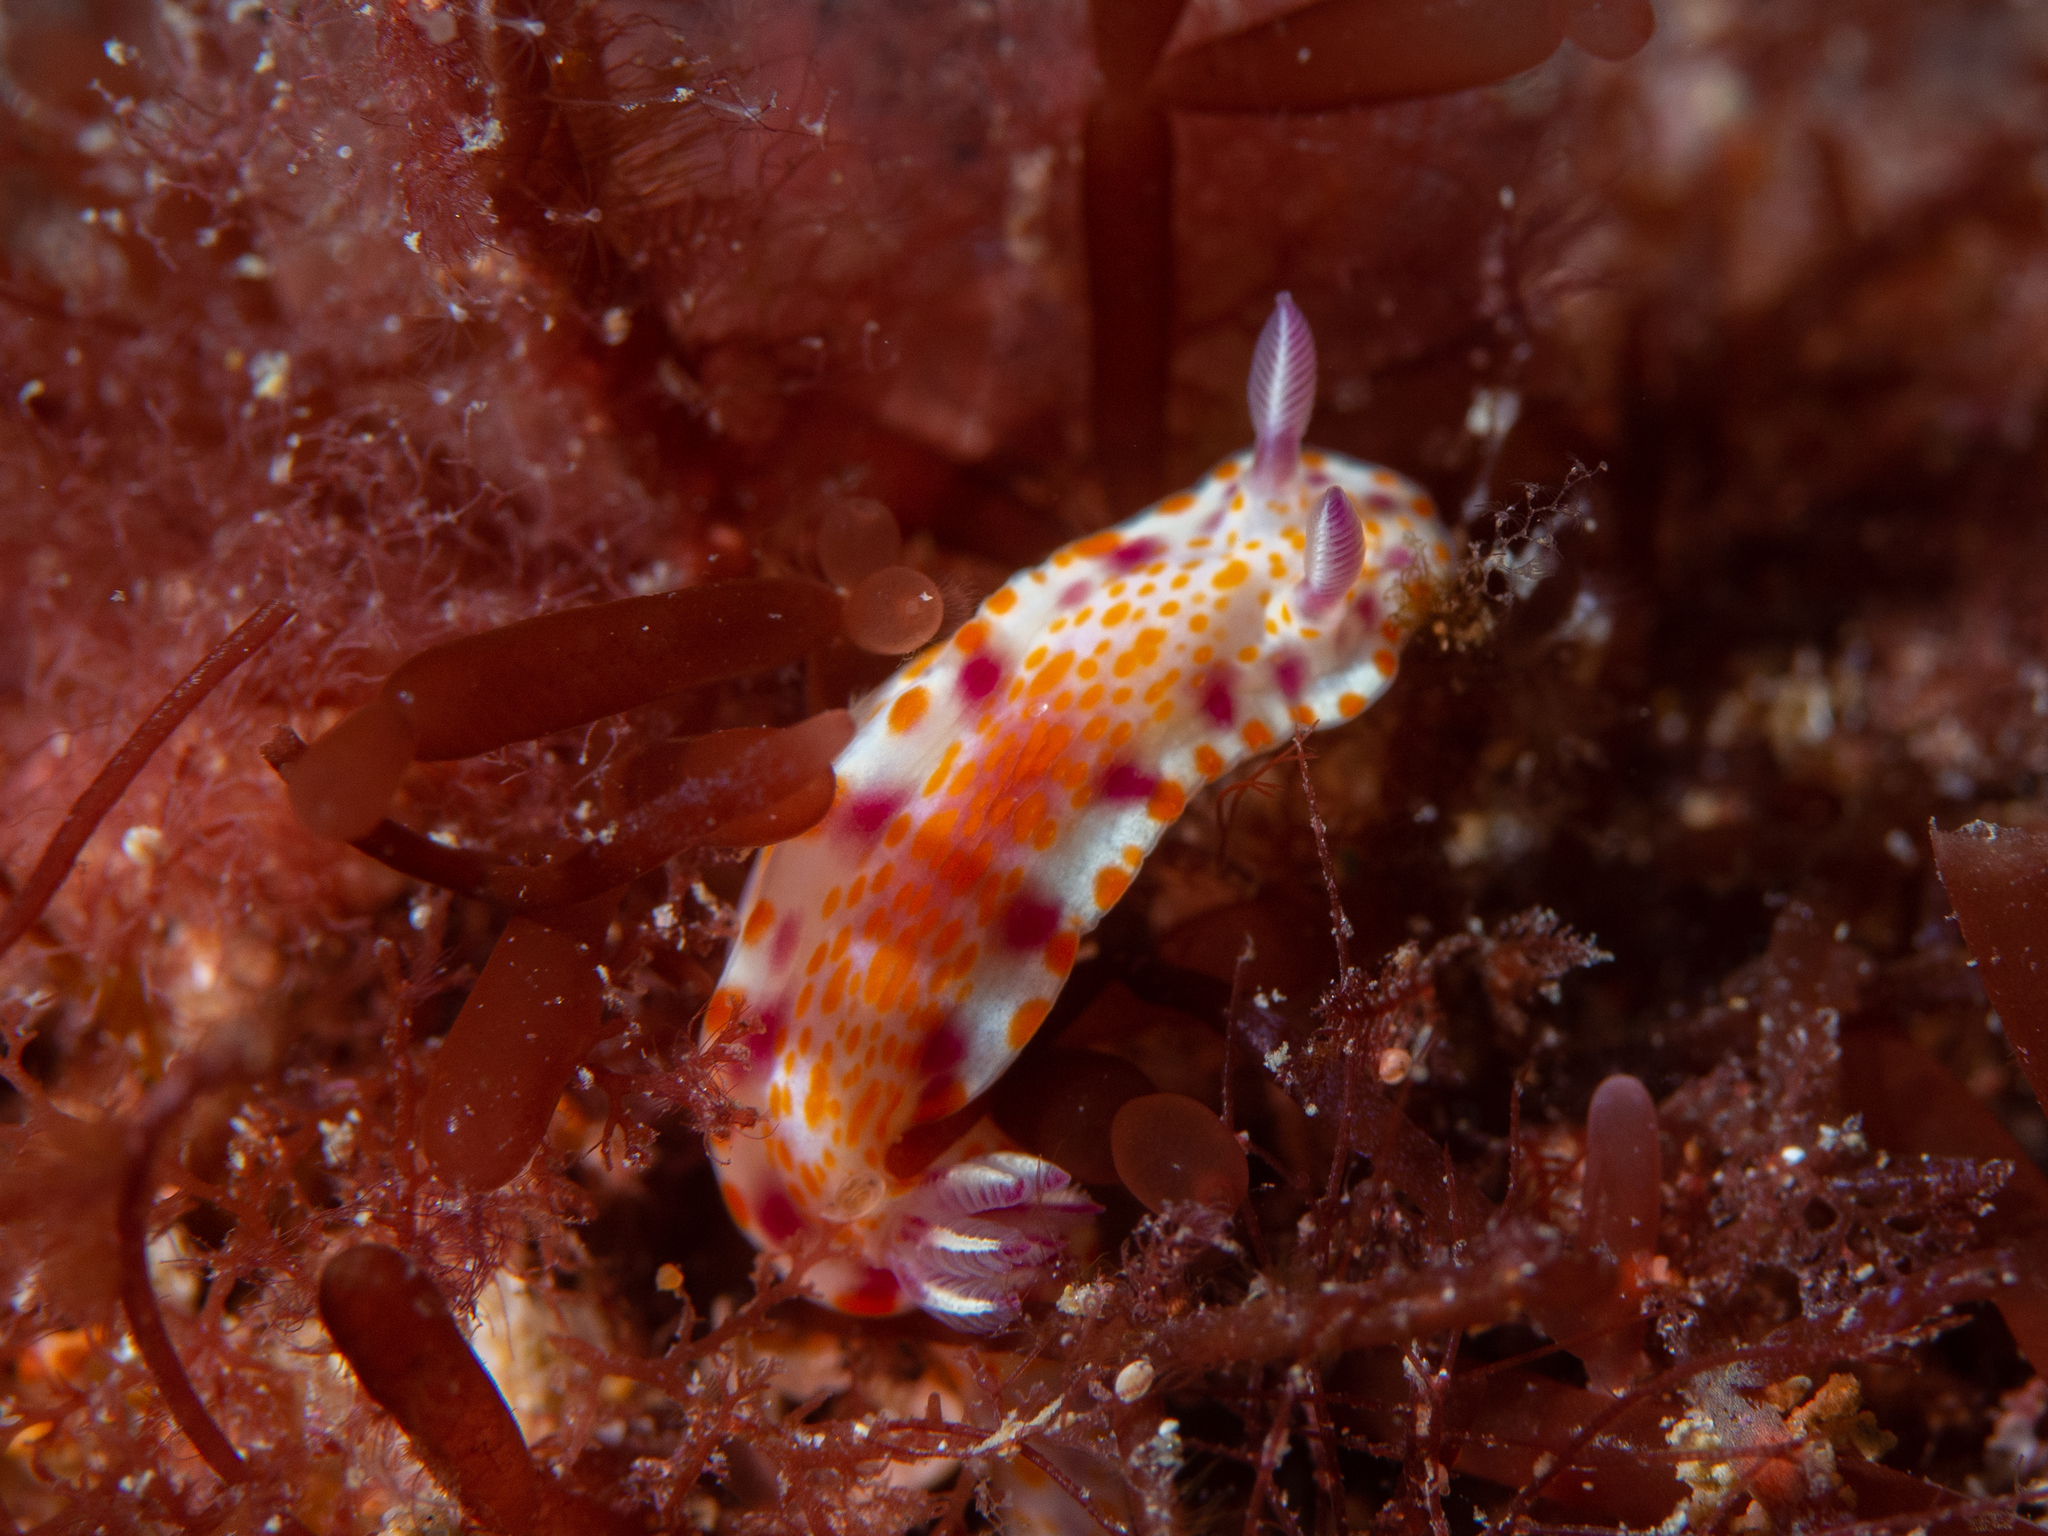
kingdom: Animalia
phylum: Mollusca
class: Gastropoda
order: Nudibranchia
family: Chromodorididae
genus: Ceratosoma
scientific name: Ceratosoma amoenum
